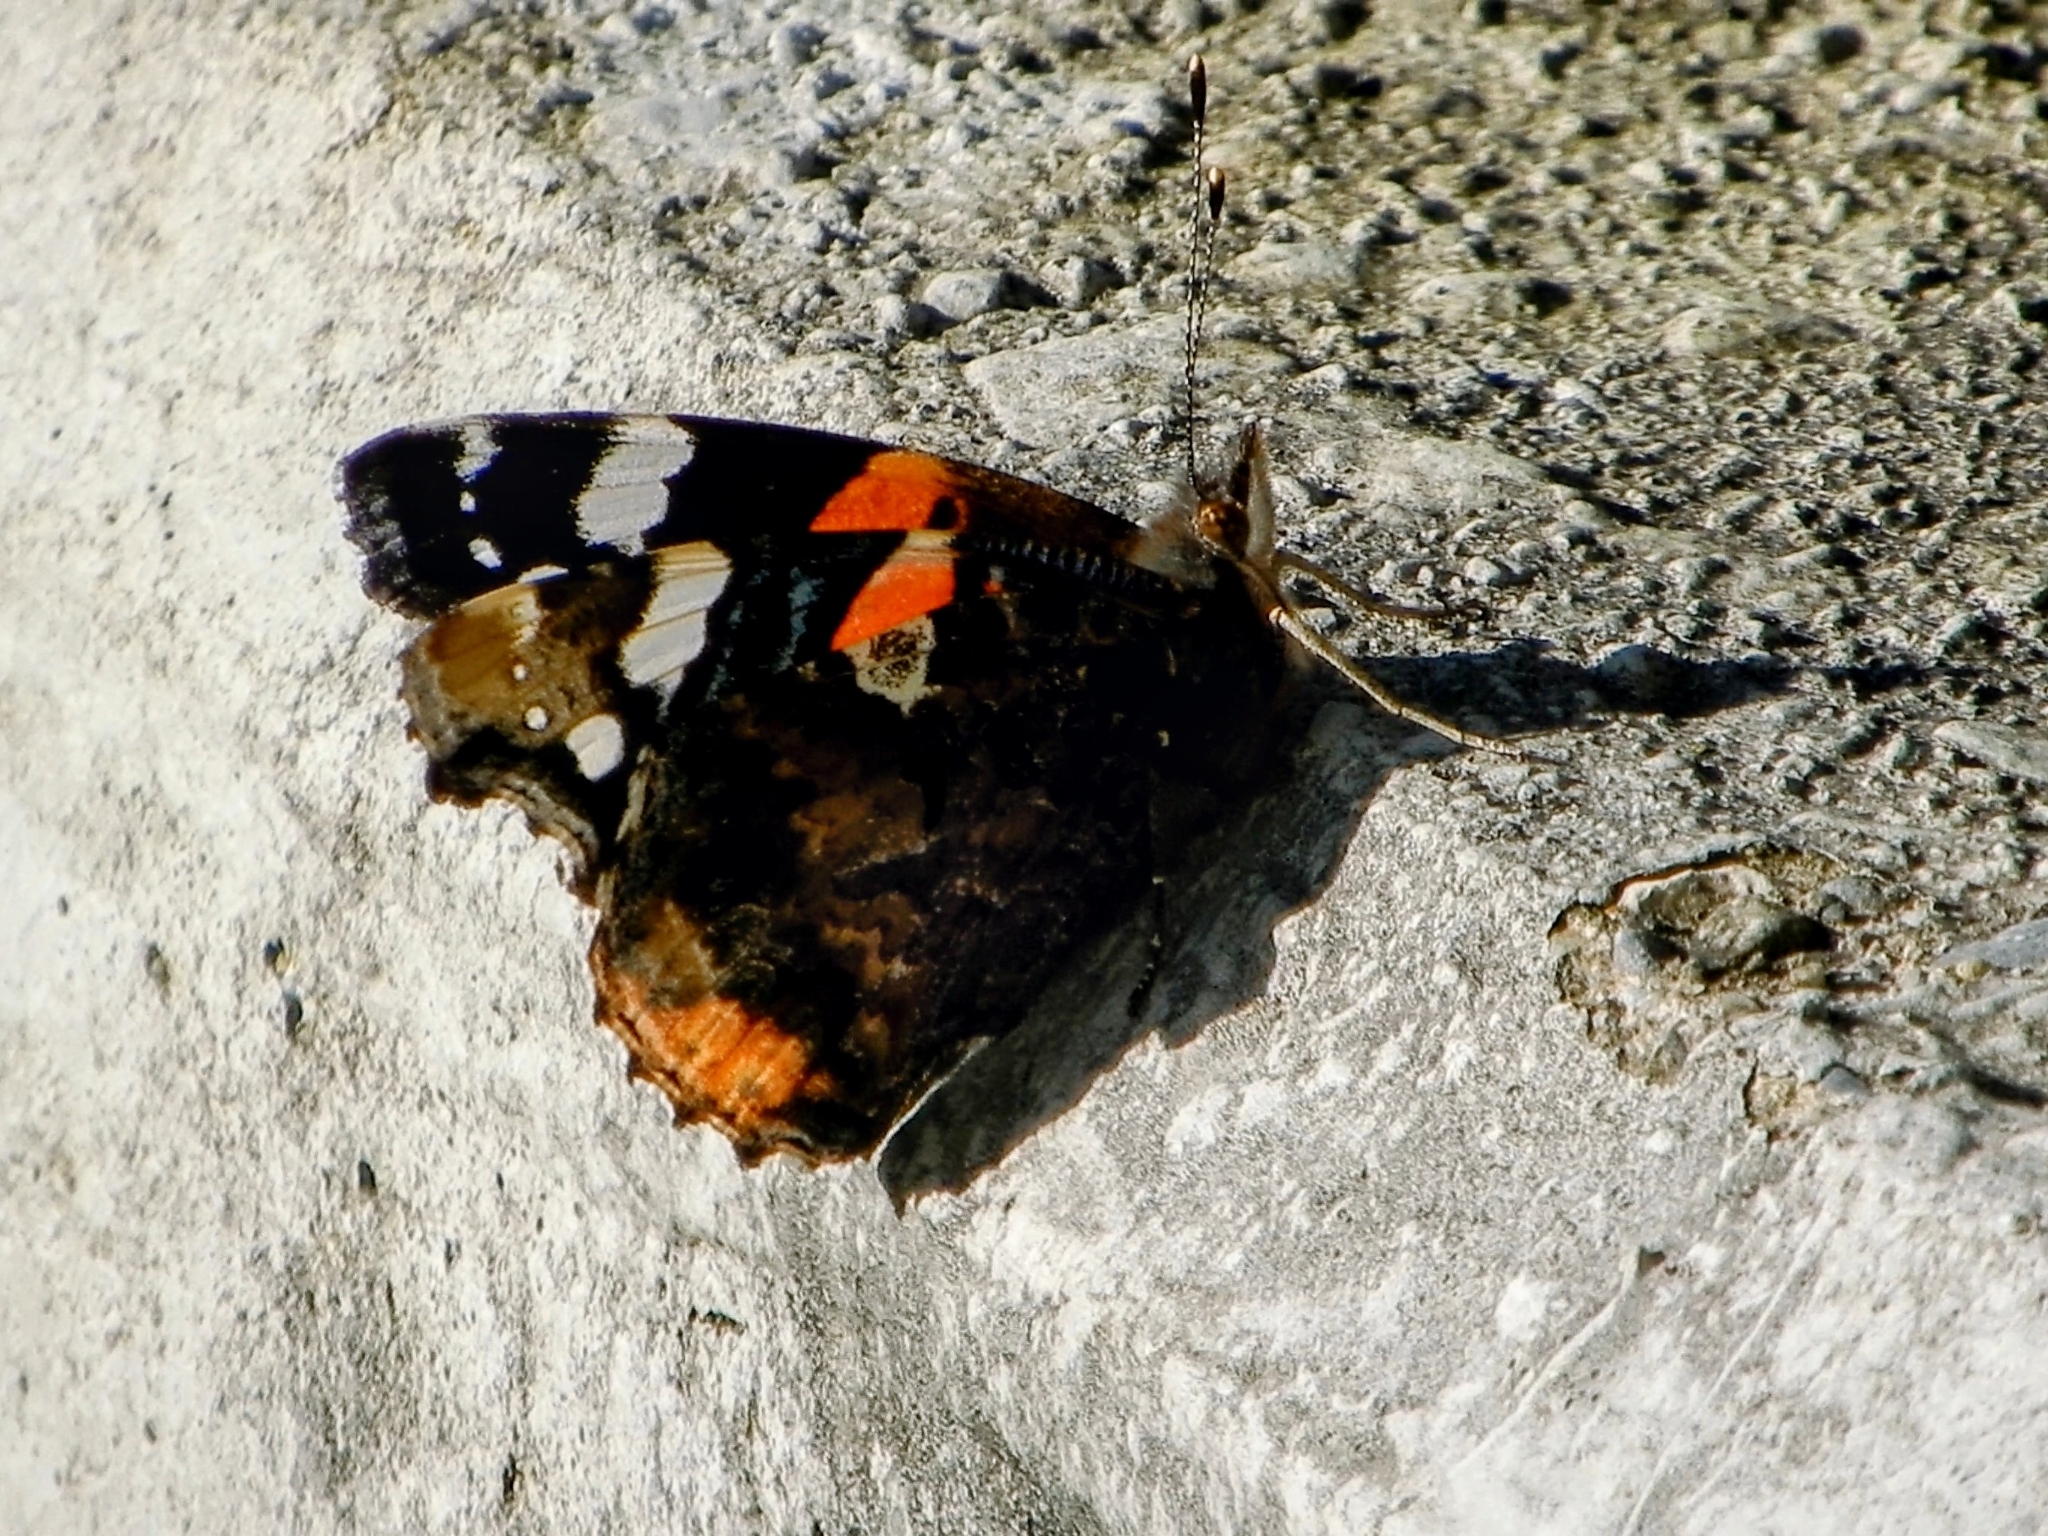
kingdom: Animalia
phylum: Arthropoda
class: Insecta
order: Lepidoptera
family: Nymphalidae
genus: Vanessa
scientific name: Vanessa atalanta
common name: Red admiral
